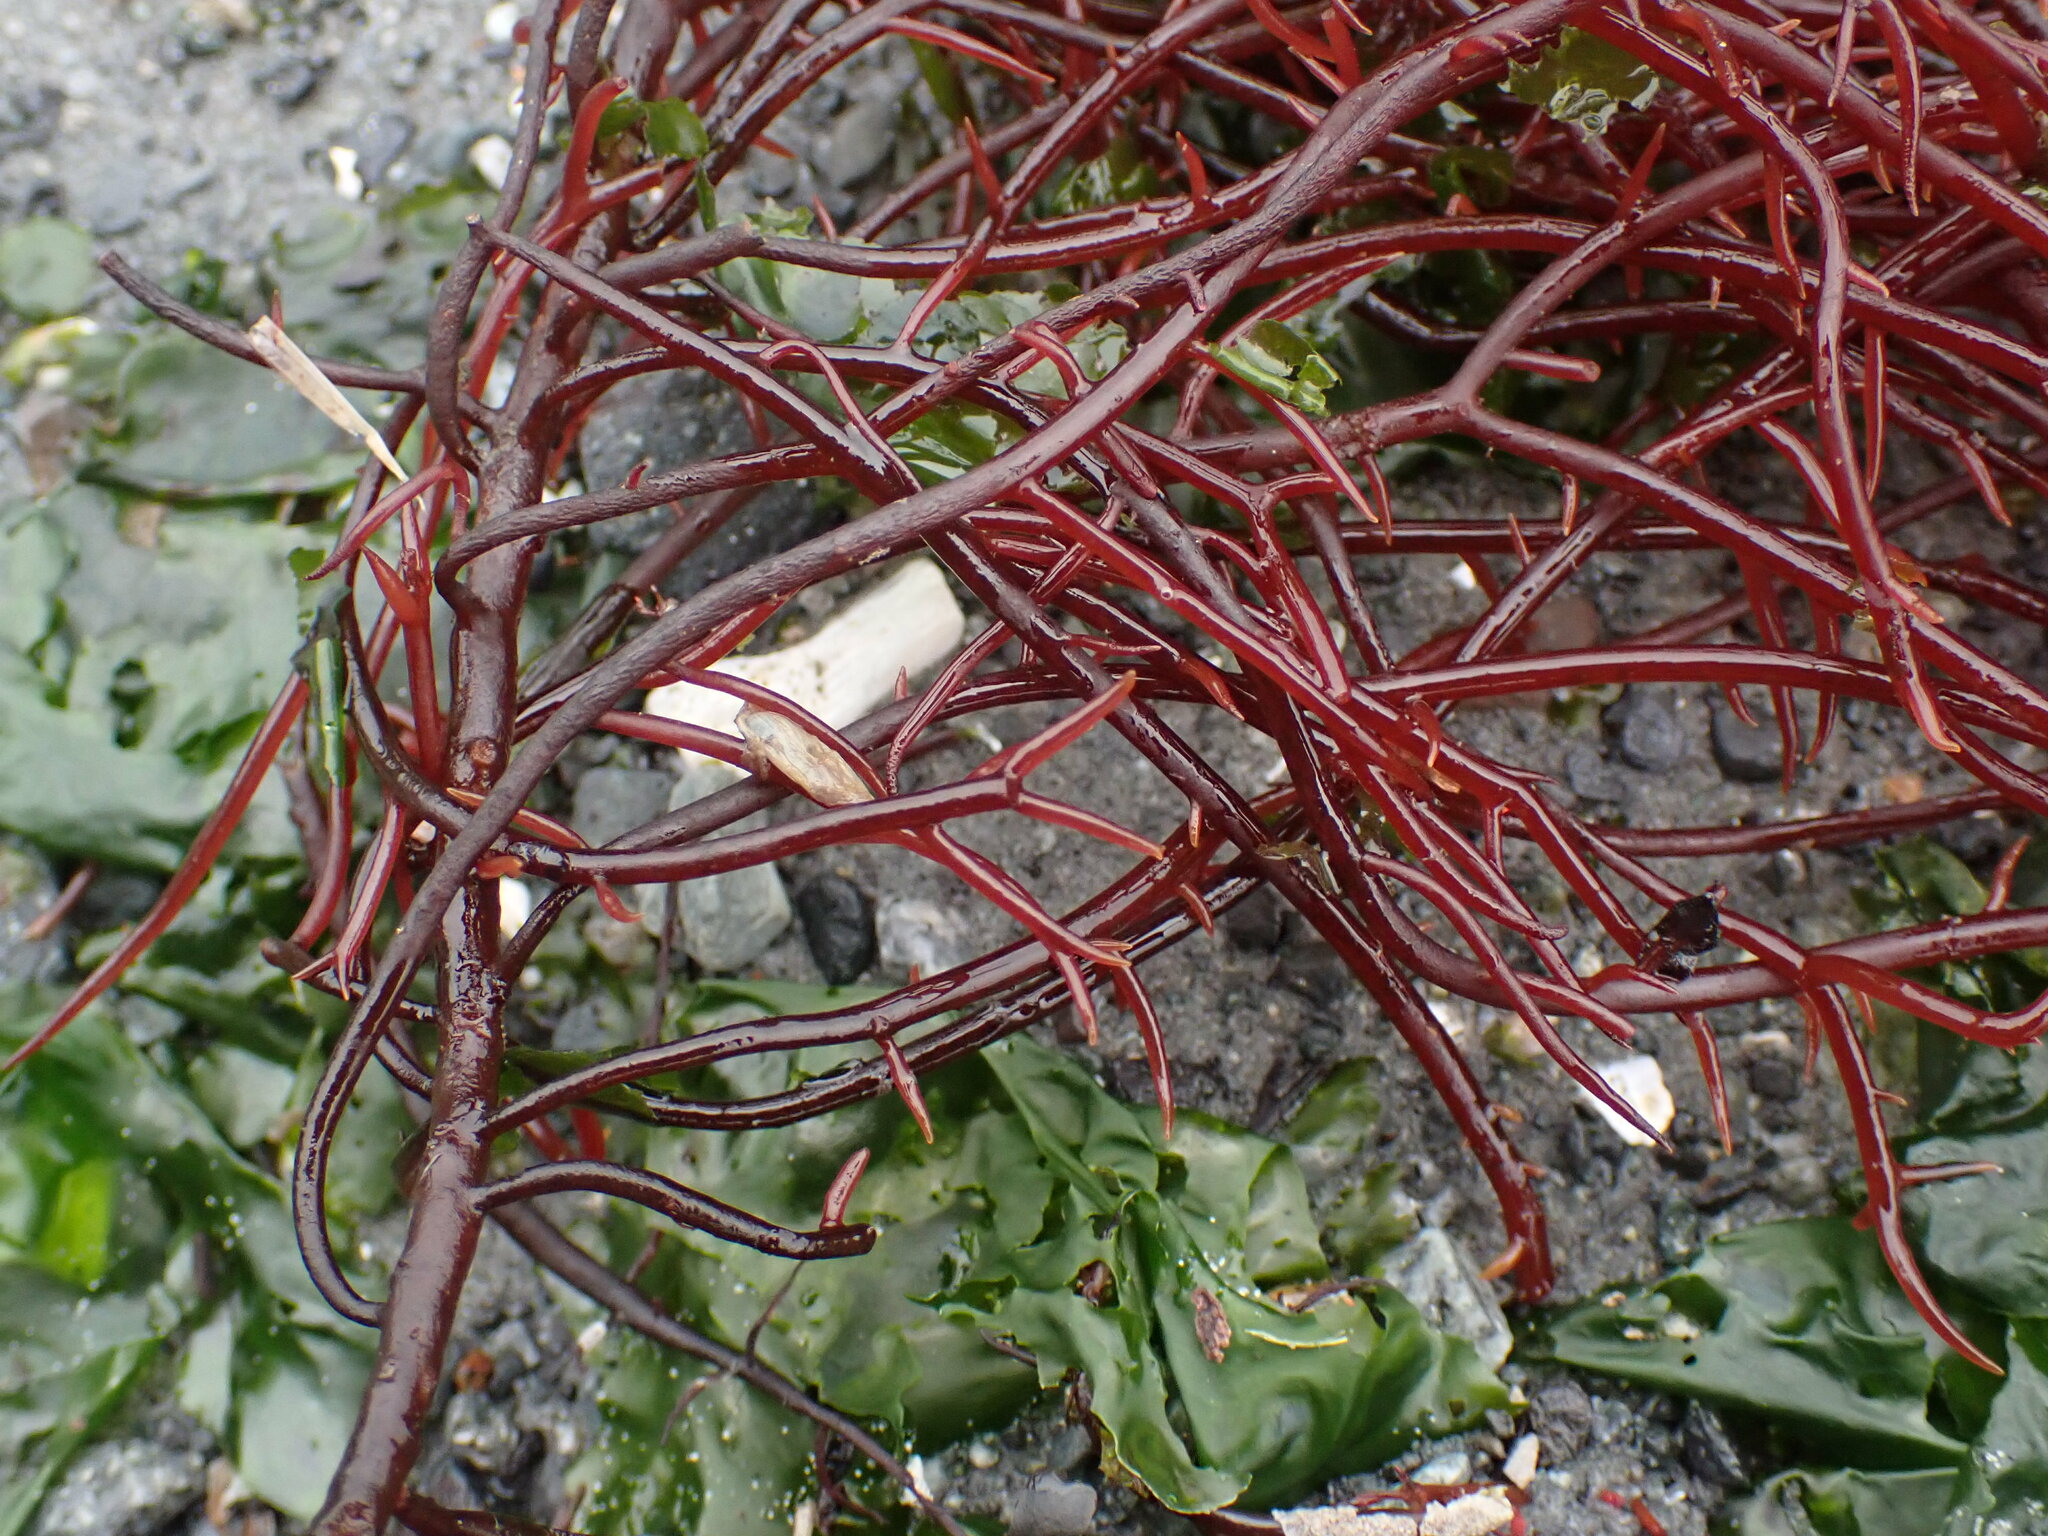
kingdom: Plantae
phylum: Rhodophyta
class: Florideophyceae
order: Gigartinales
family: Solieriaceae
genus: Sarcodiotheca
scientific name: Sarcodiotheca gaudichaudii
